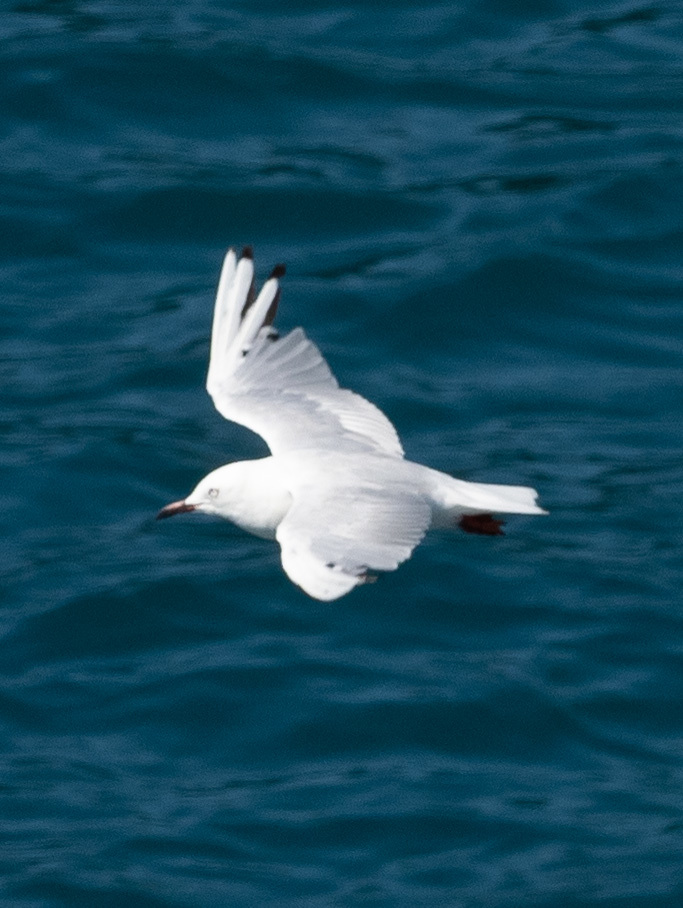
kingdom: Animalia
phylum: Chordata
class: Aves
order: Charadriiformes
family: Laridae
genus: Chroicocephalus
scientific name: Chroicocephalus bulleri
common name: Black-billed gull
